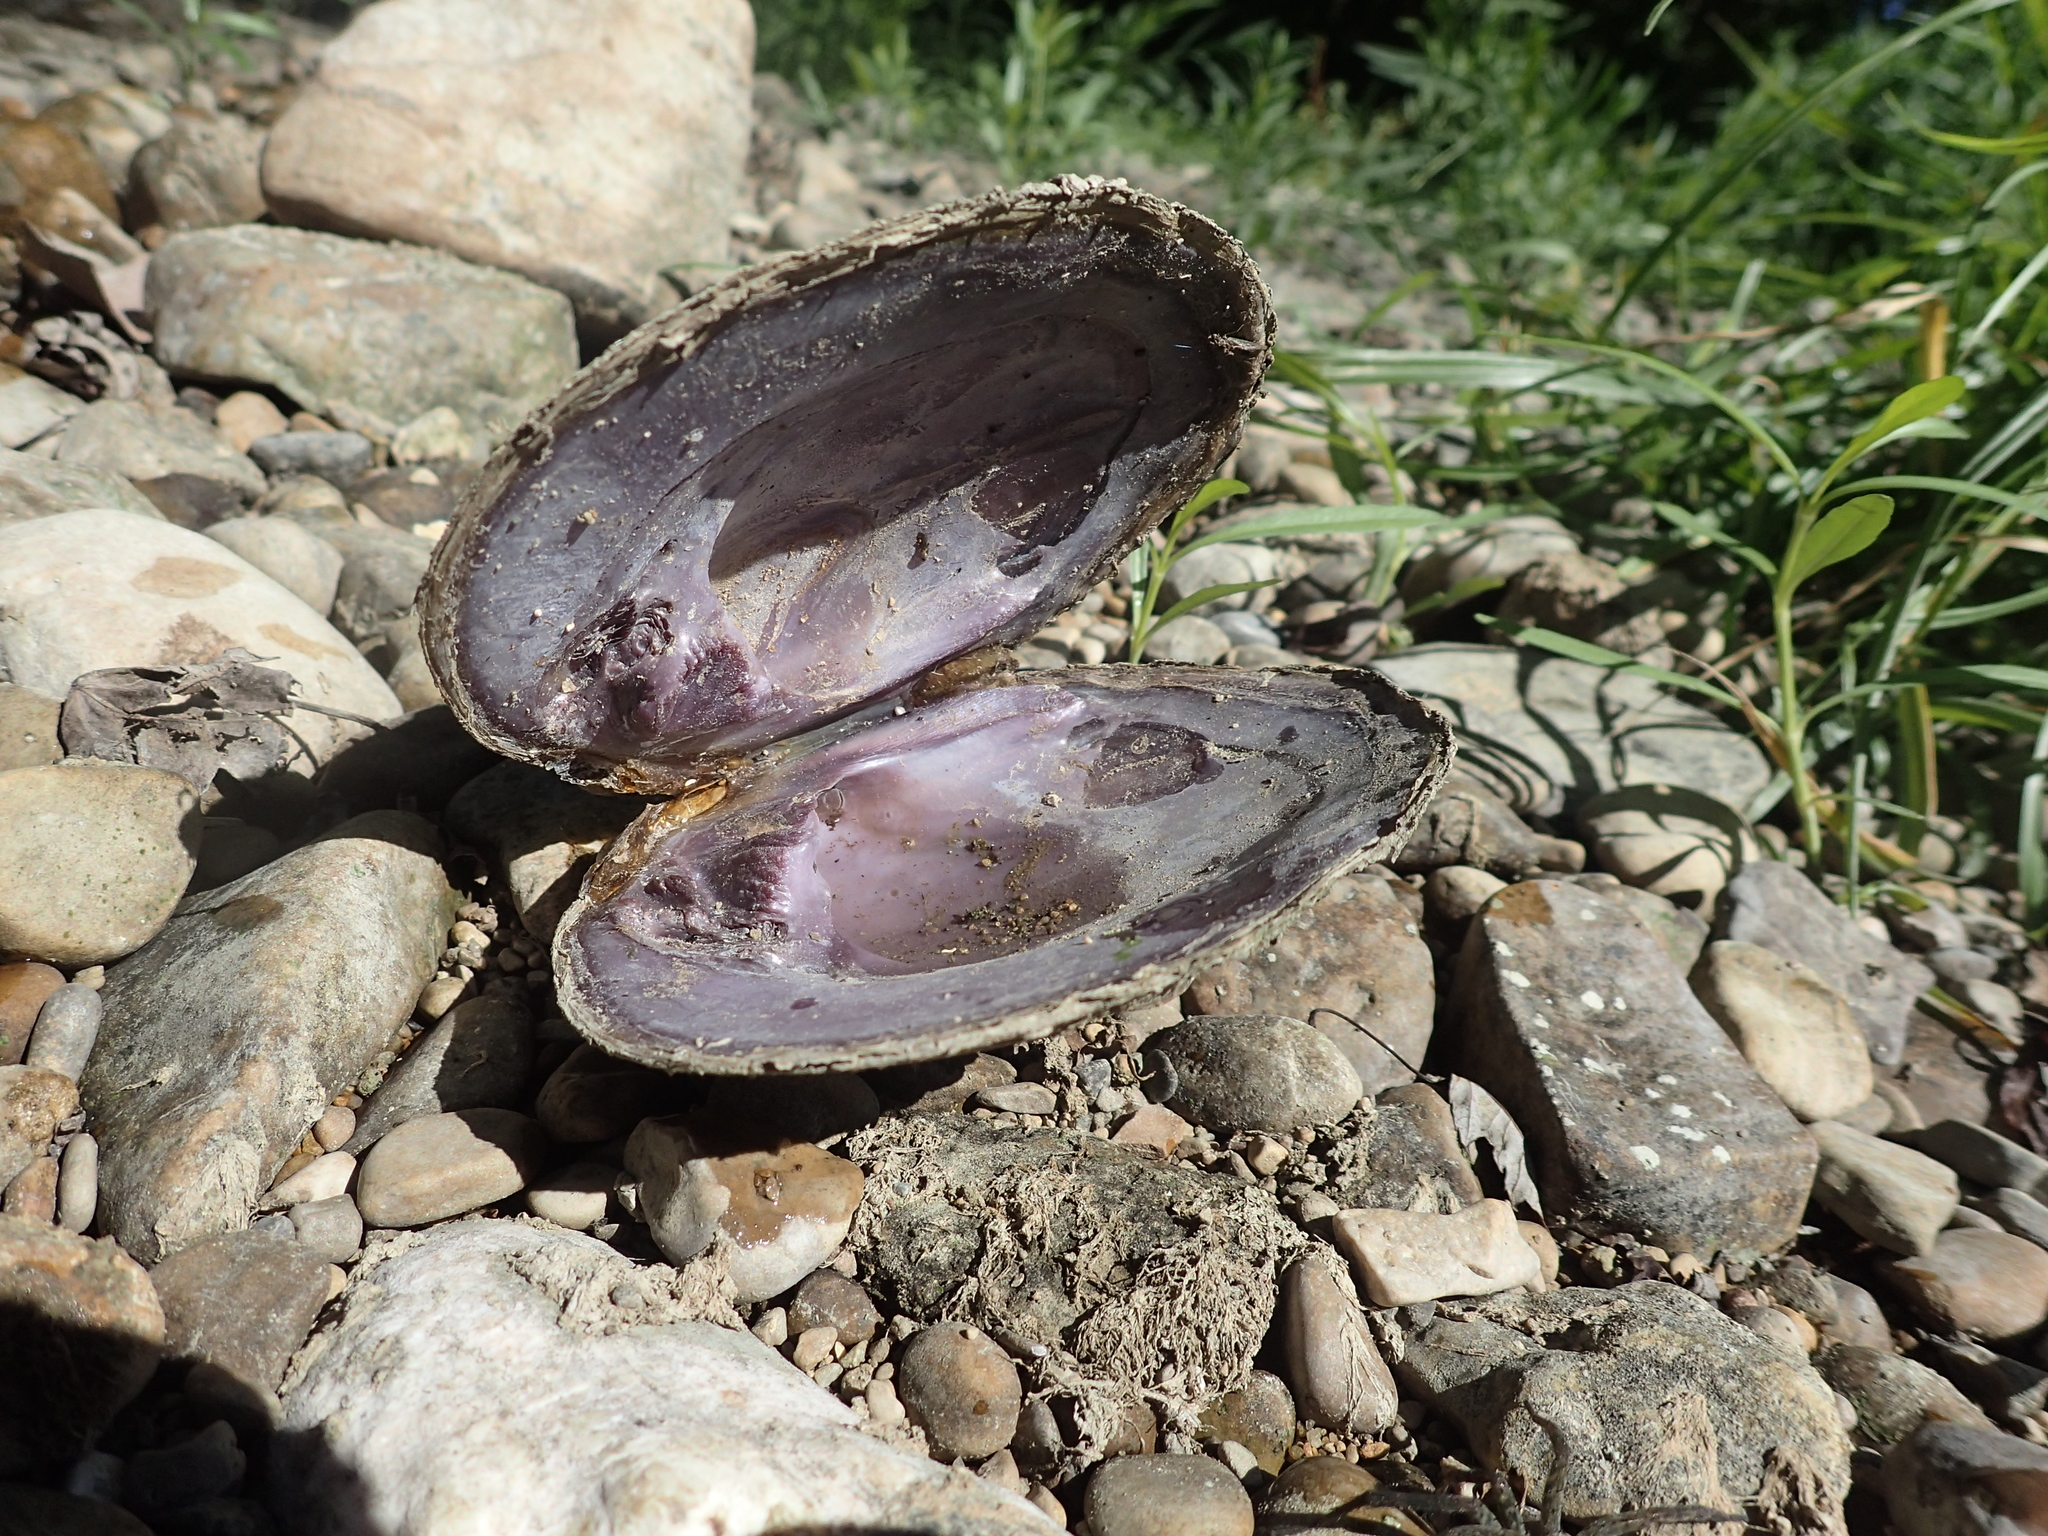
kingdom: Animalia
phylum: Mollusca
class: Bivalvia
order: Unionida
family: Unionidae
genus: Cyclonaias
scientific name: Cyclonaias tuberculata
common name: Purple wartyback
